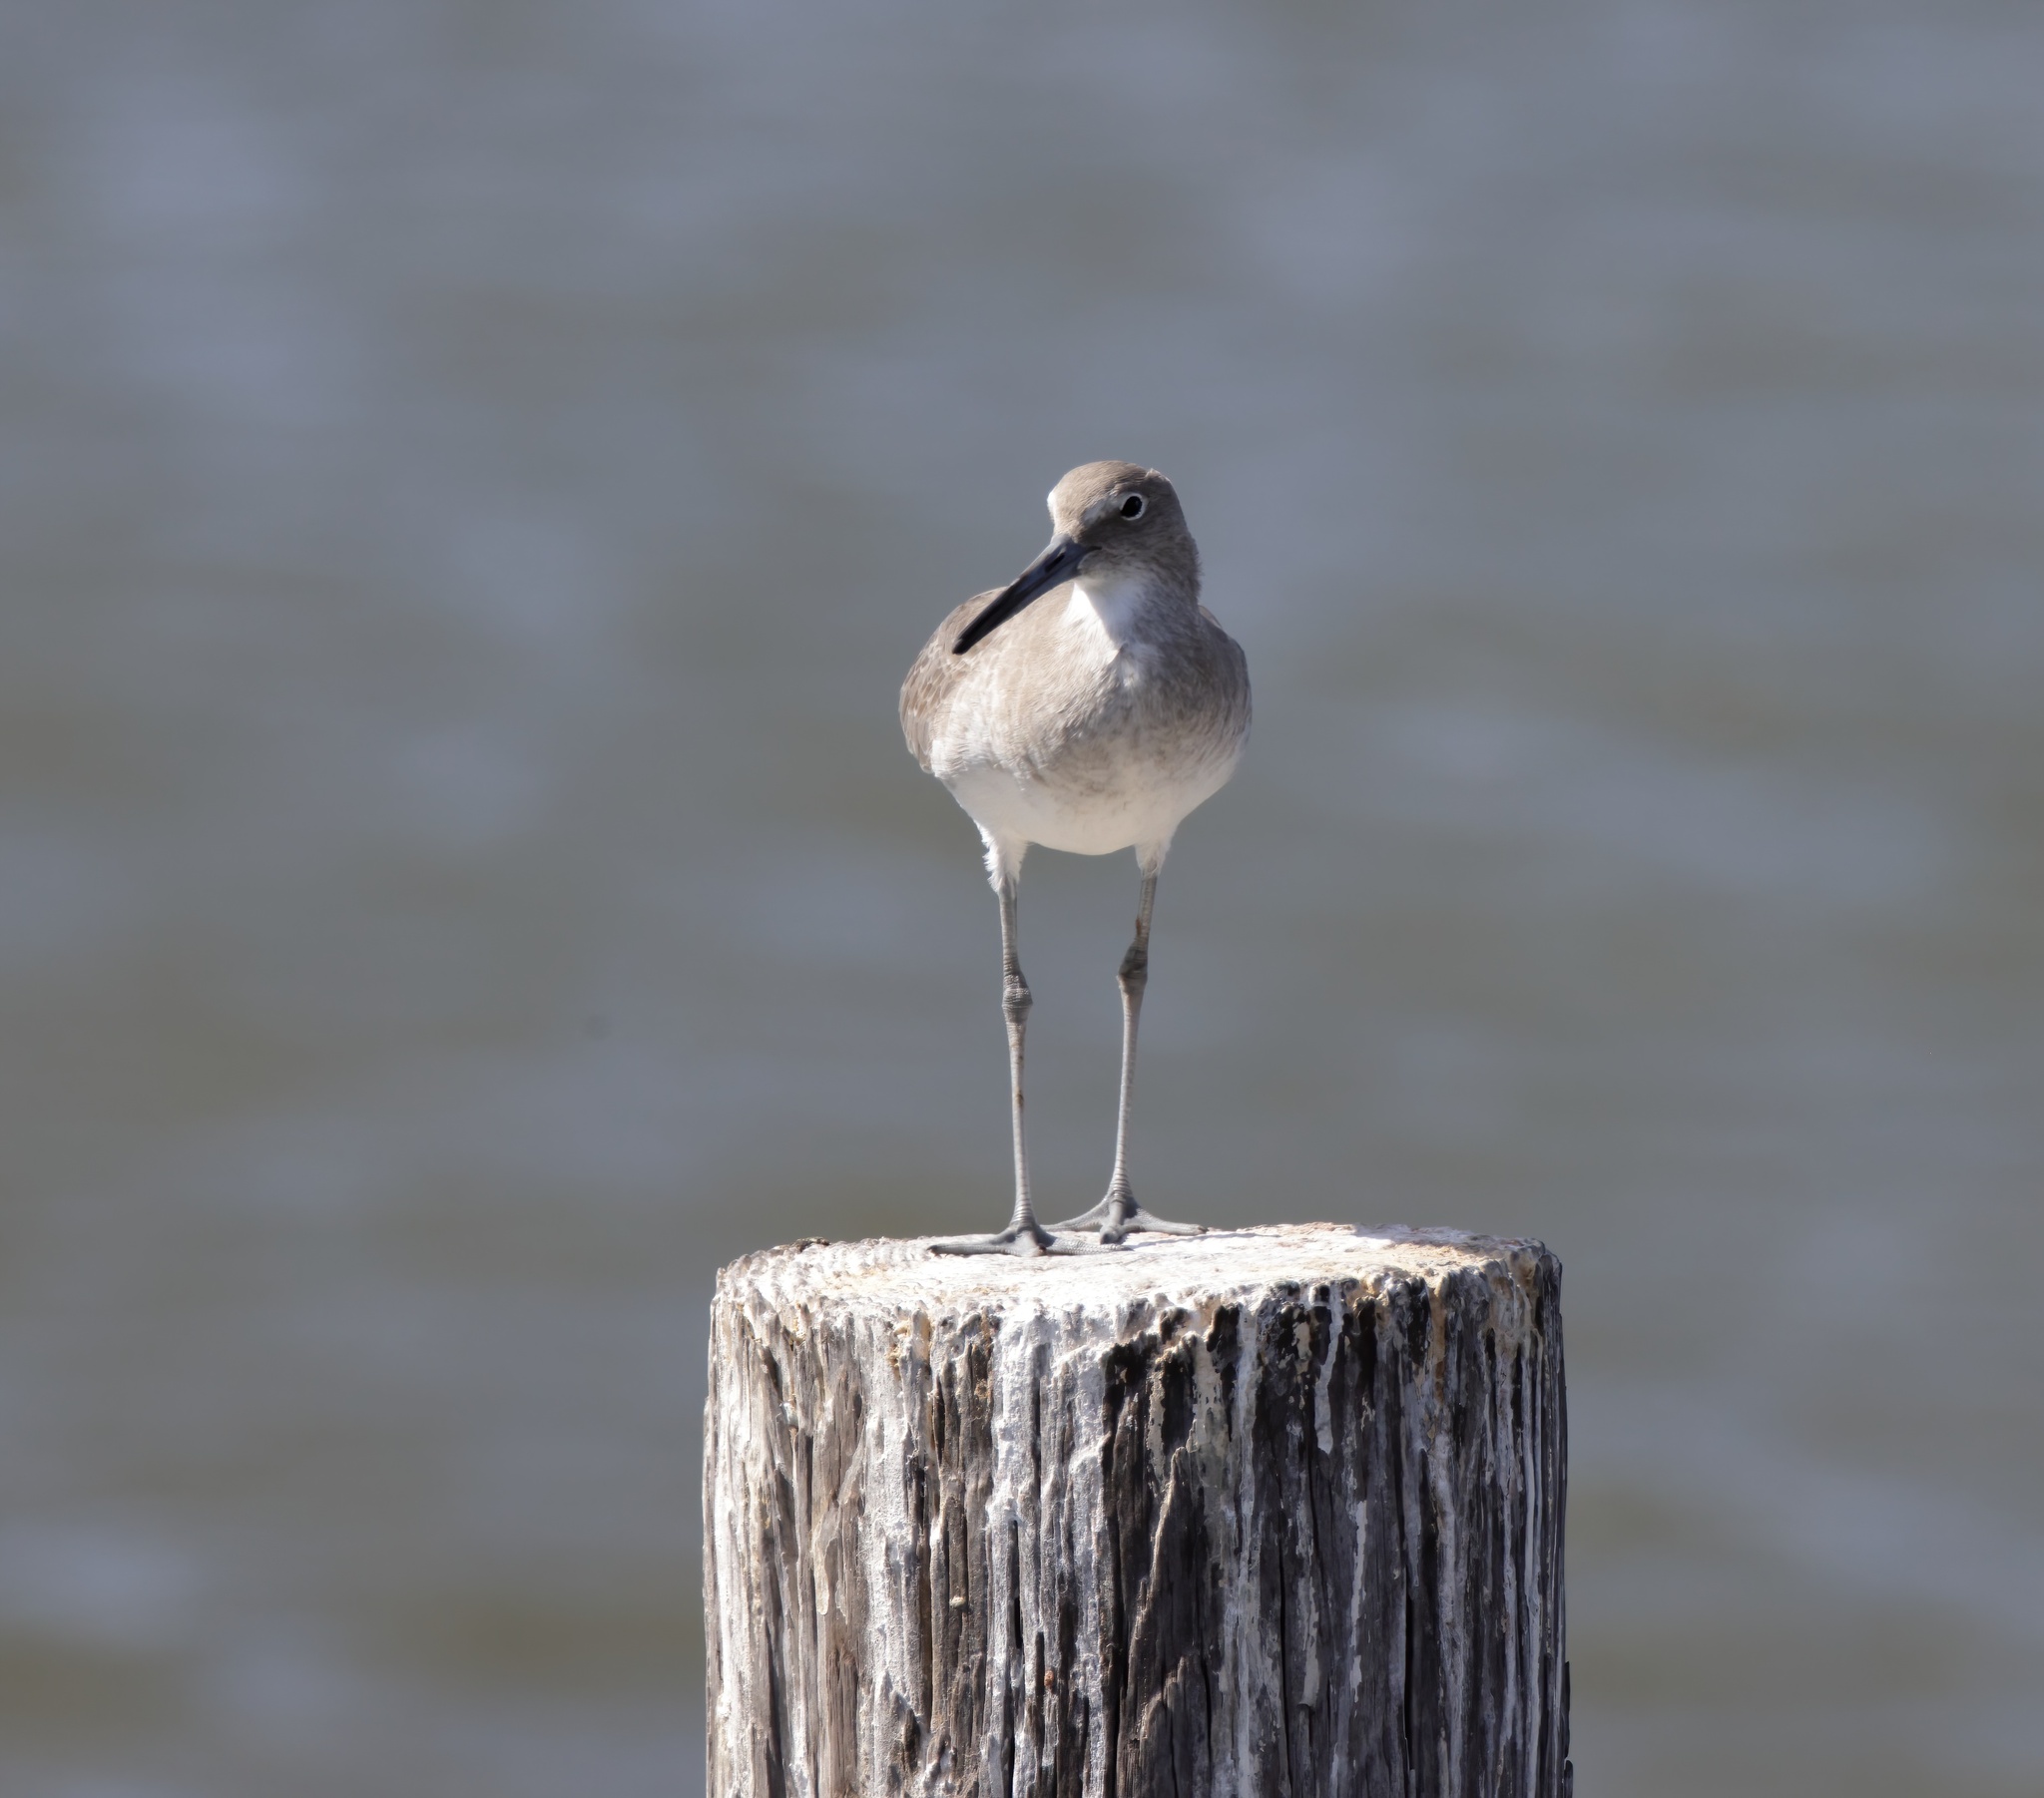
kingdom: Animalia
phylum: Chordata
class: Aves
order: Charadriiformes
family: Scolopacidae
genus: Tringa
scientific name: Tringa semipalmata
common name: Willet
